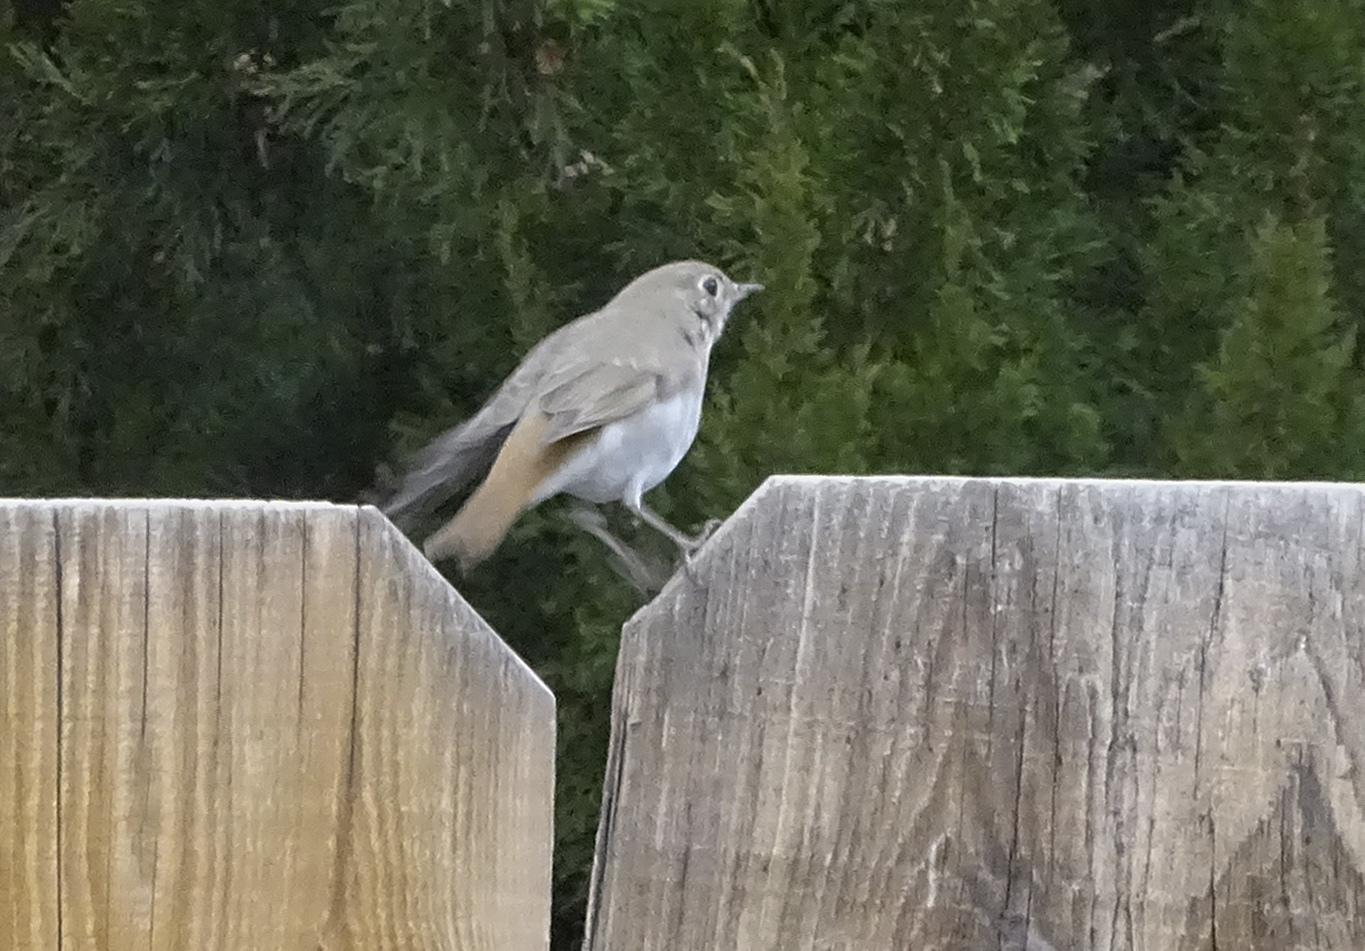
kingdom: Animalia
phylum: Chordata
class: Aves
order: Passeriformes
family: Turdidae
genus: Catharus
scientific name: Catharus guttatus
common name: Hermit thrush
